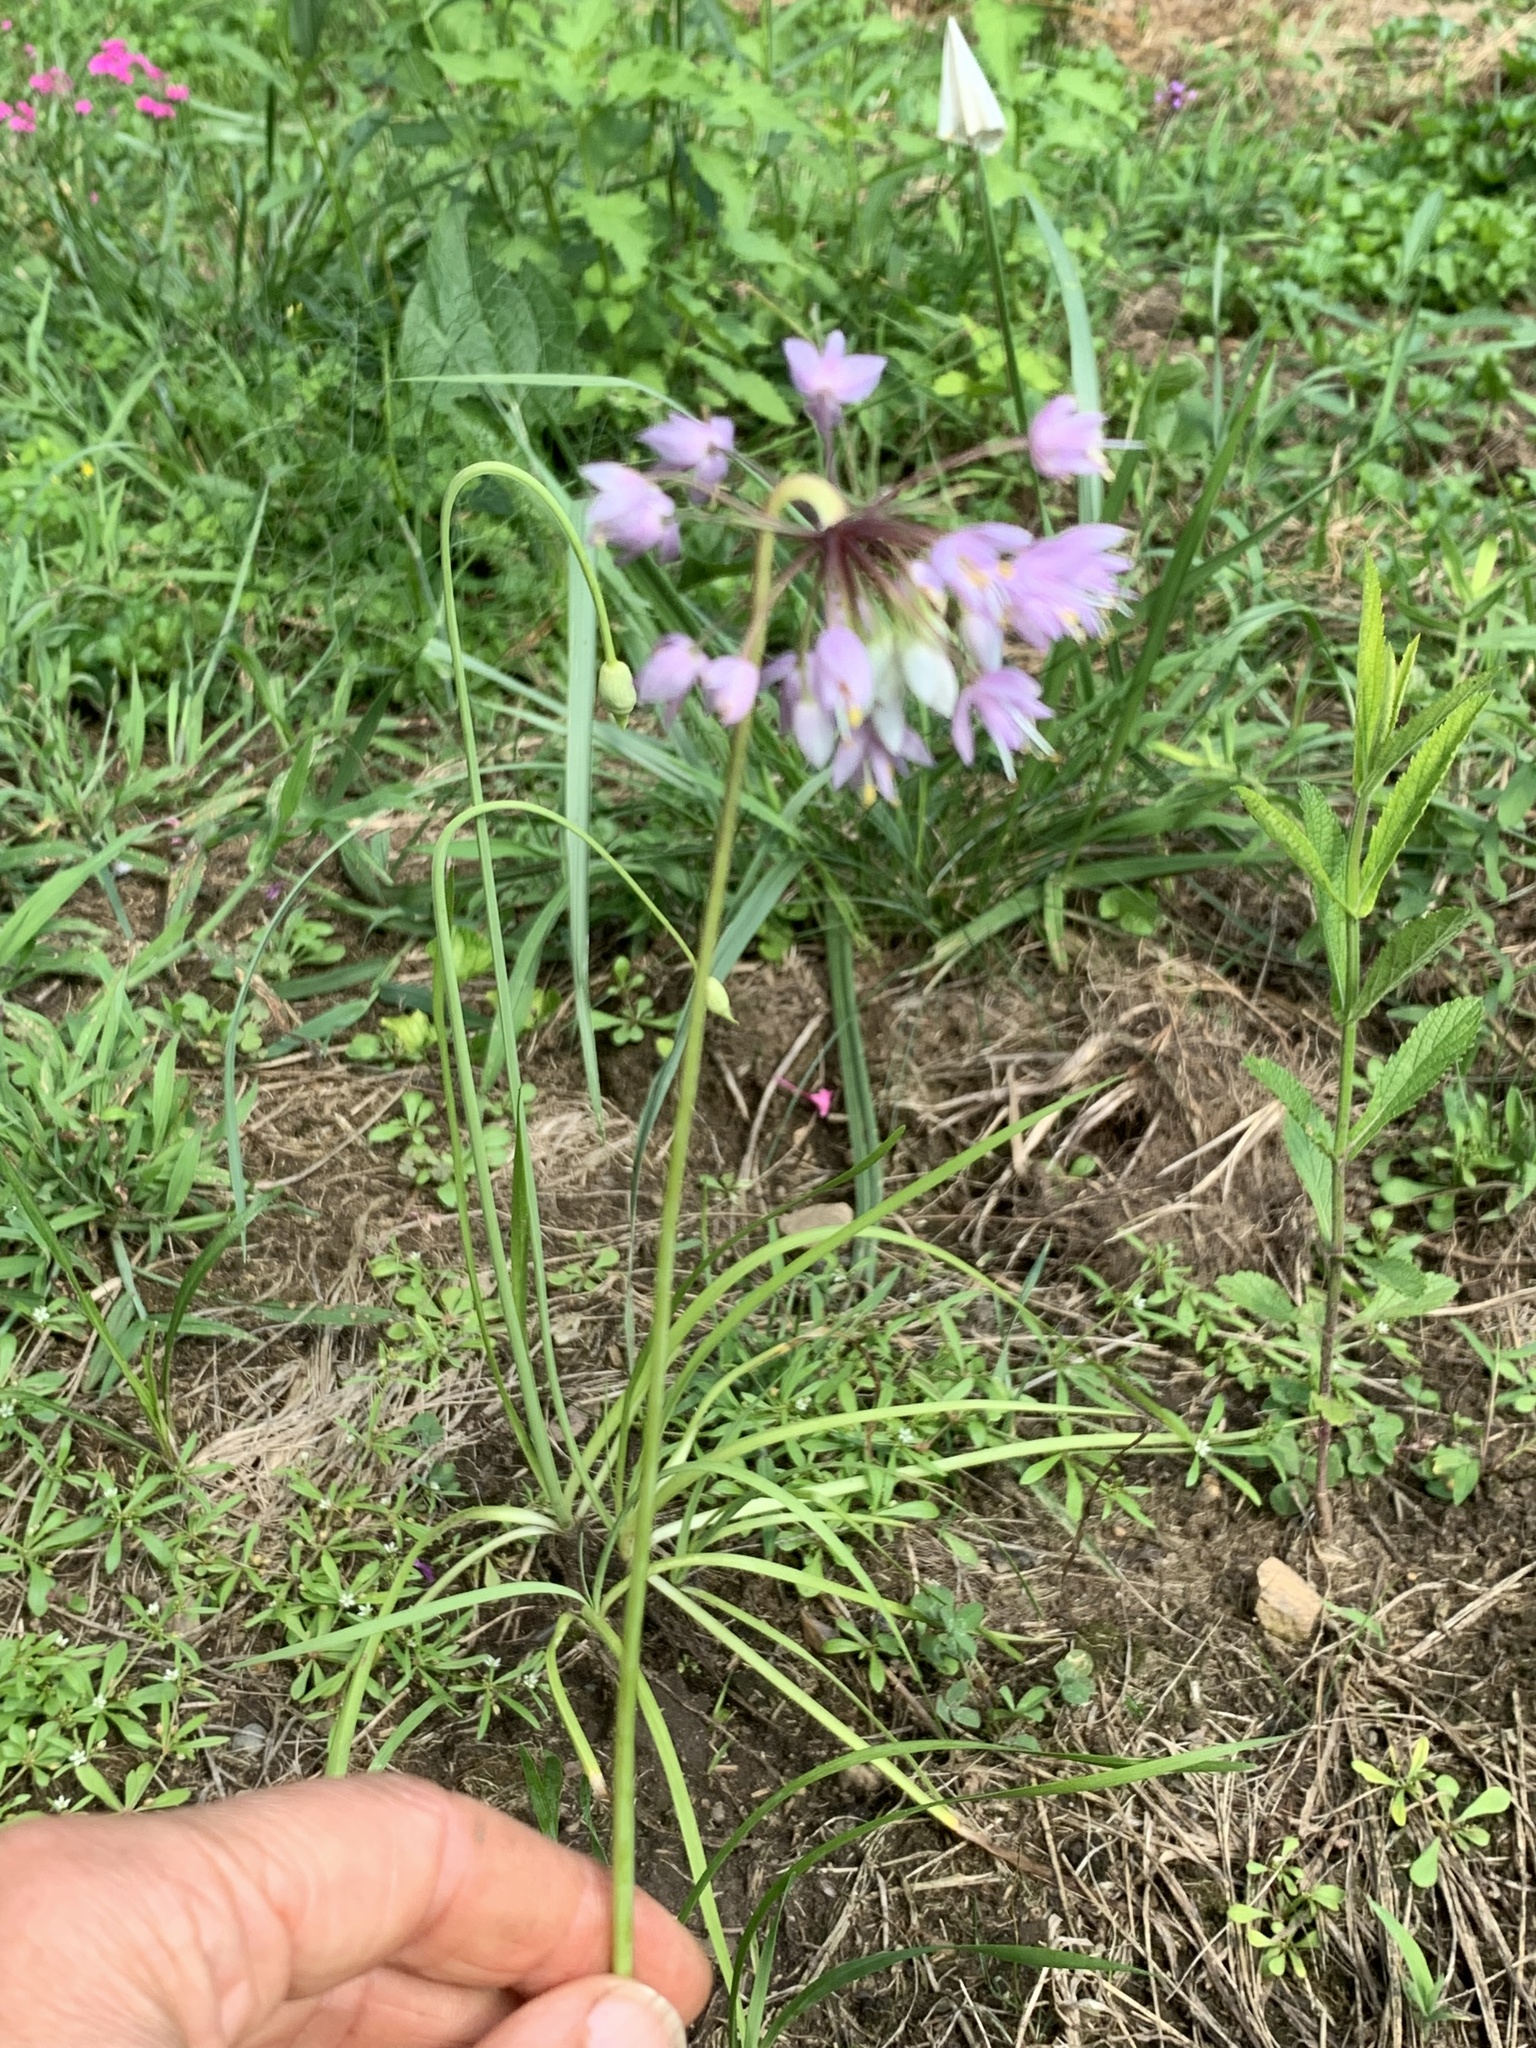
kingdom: Plantae
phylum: Tracheophyta
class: Liliopsida
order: Asparagales
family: Amaryllidaceae
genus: Allium
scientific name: Allium cernuum
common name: Nodding onion
